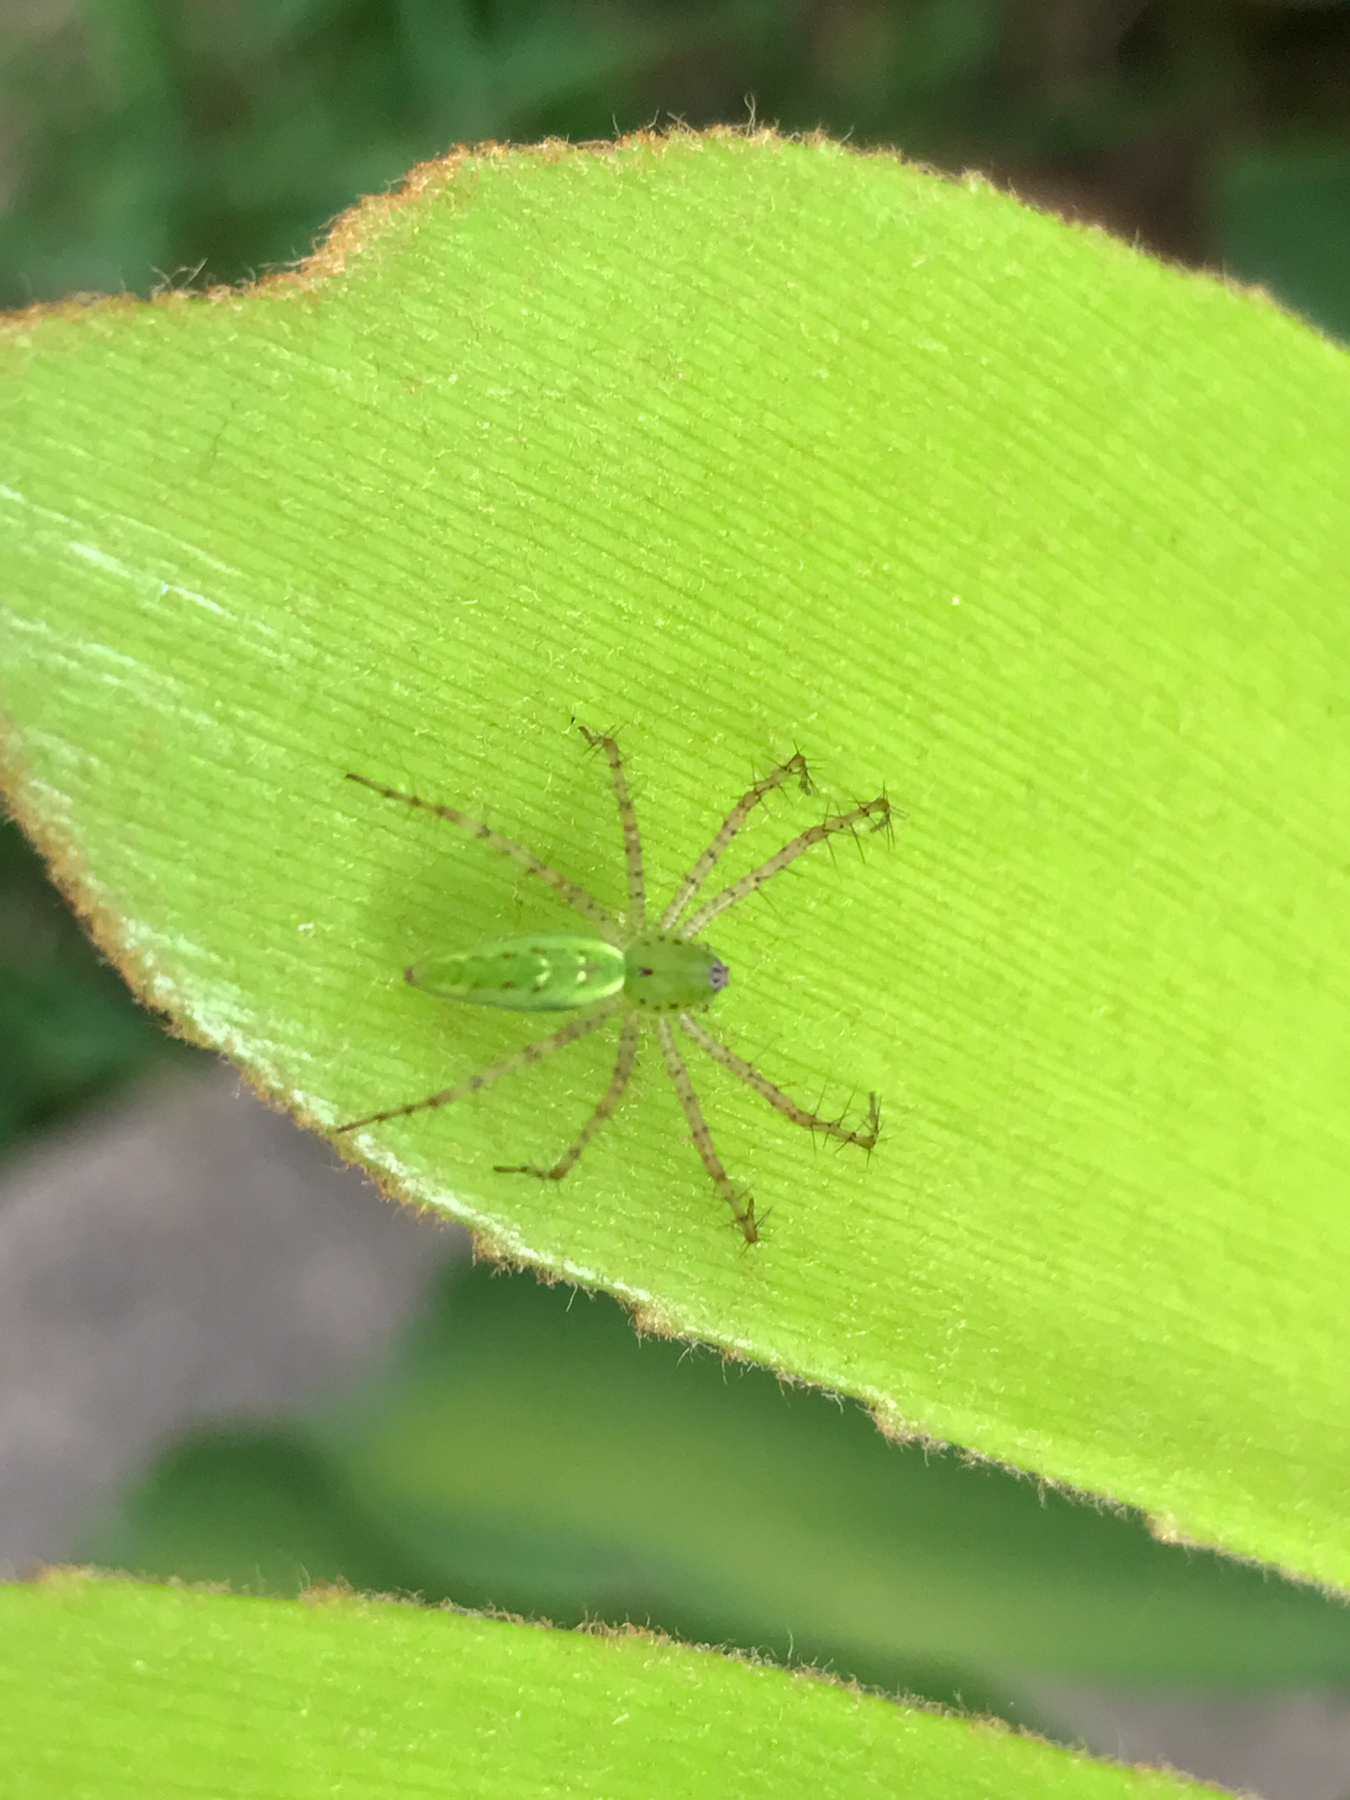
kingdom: Animalia
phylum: Arthropoda
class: Arachnida
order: Araneae
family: Oxyopidae
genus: Peucetia
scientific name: Peucetia viridans
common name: Lynx spiders
